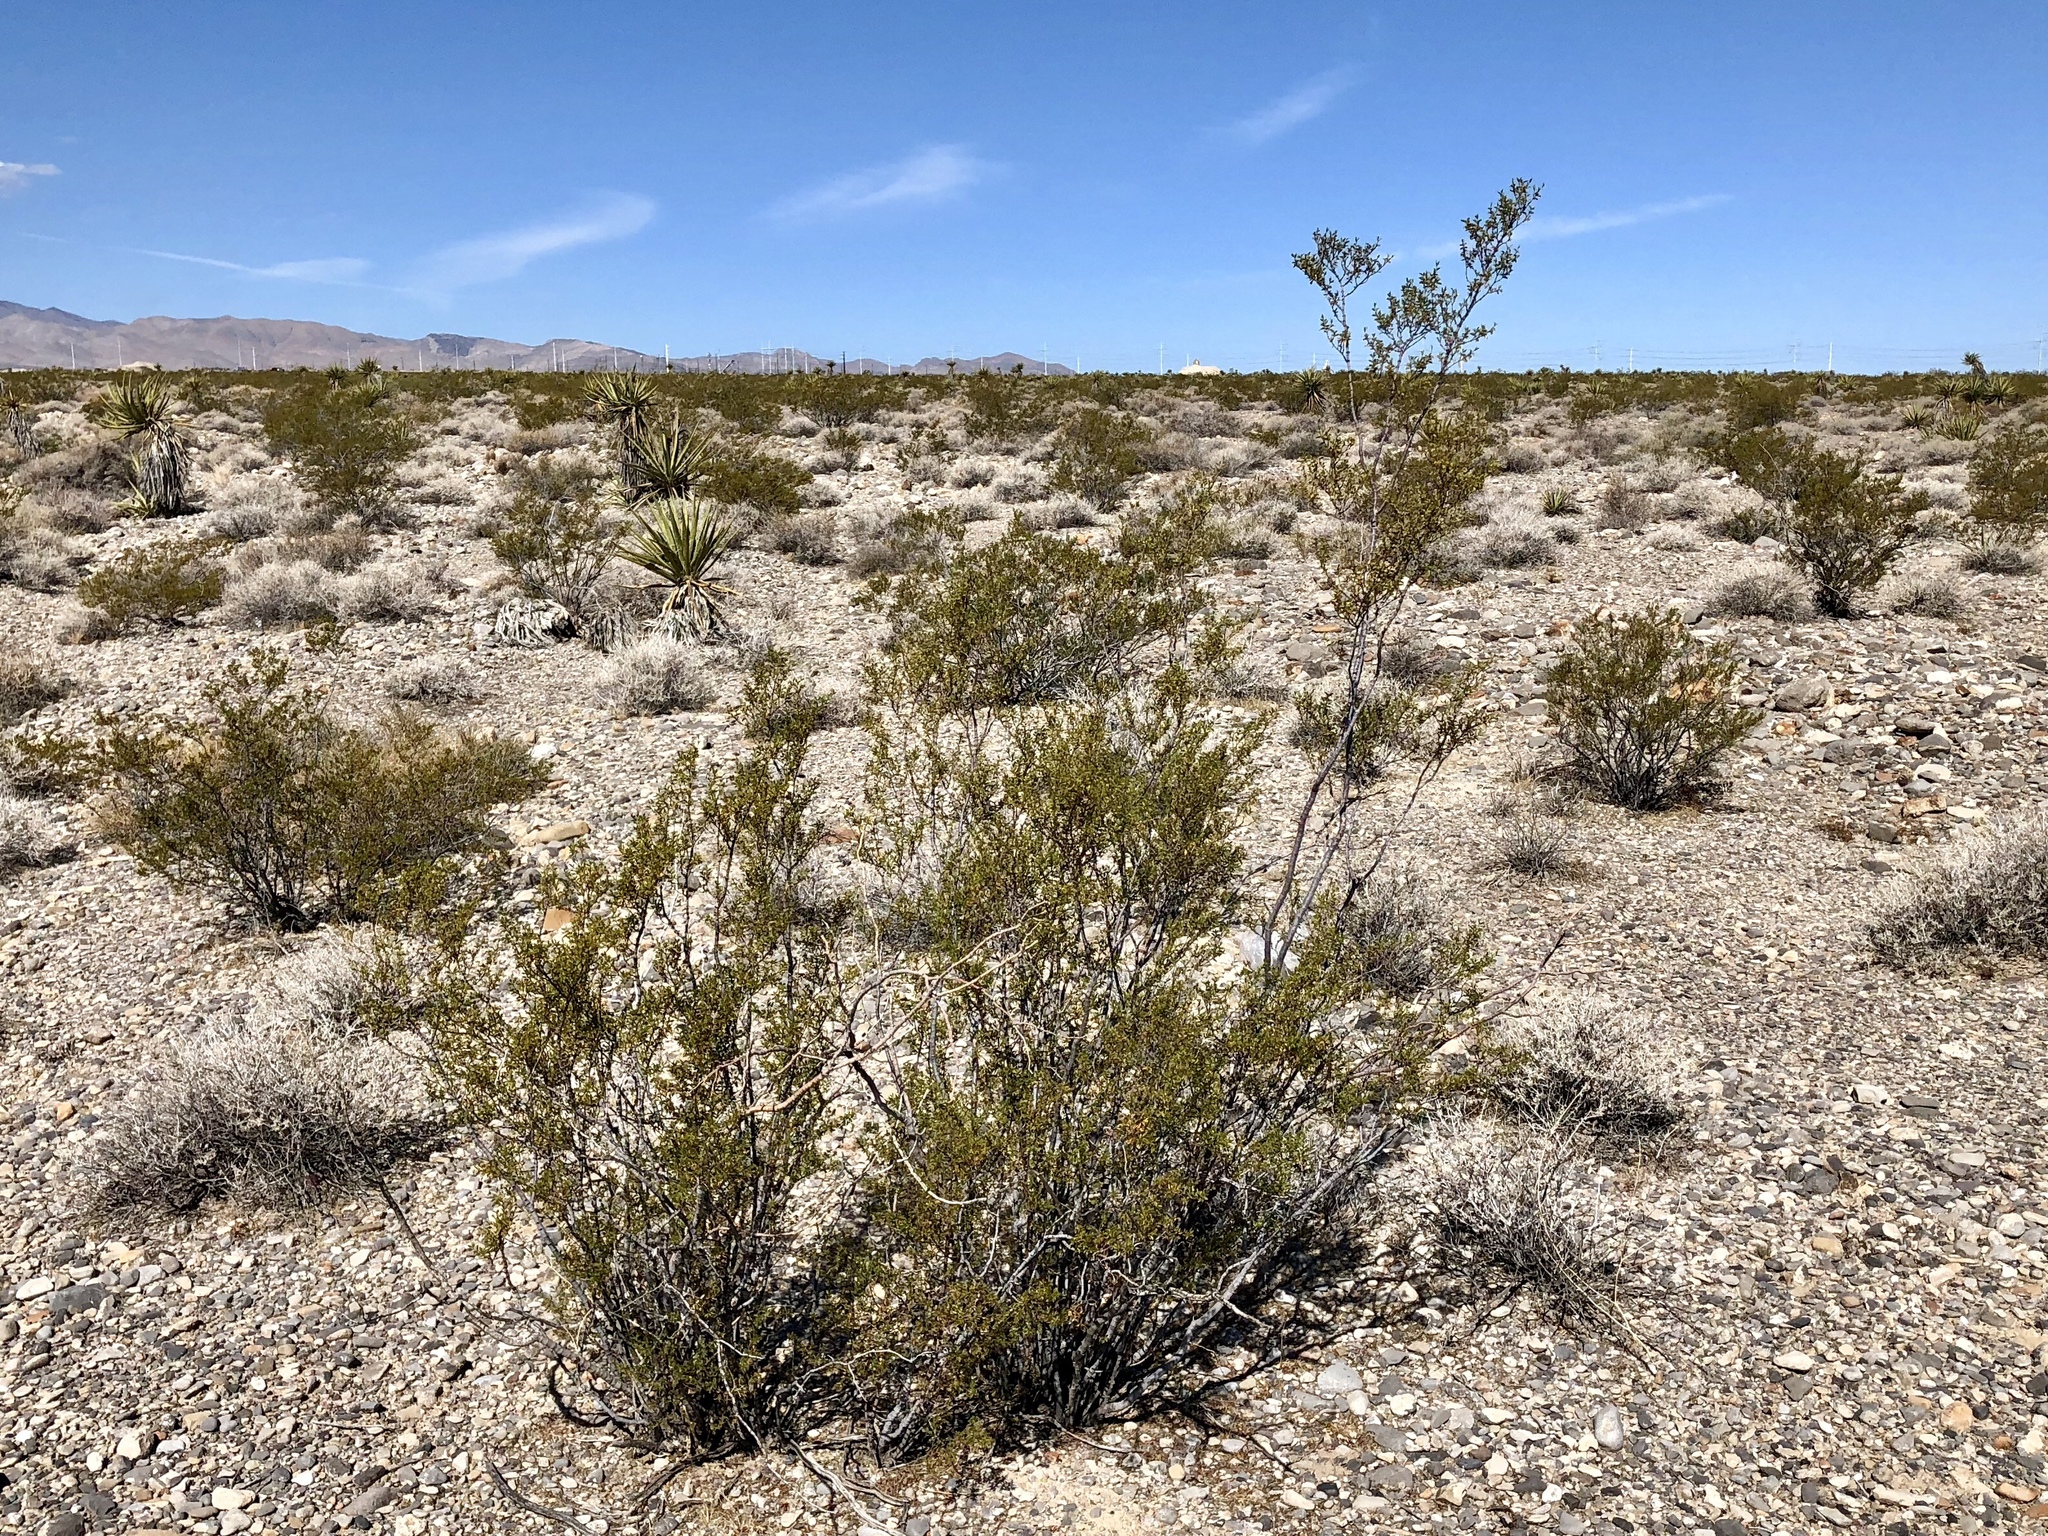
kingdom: Plantae
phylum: Tracheophyta
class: Magnoliopsida
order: Zygophyllales
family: Zygophyllaceae
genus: Larrea
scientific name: Larrea tridentata
